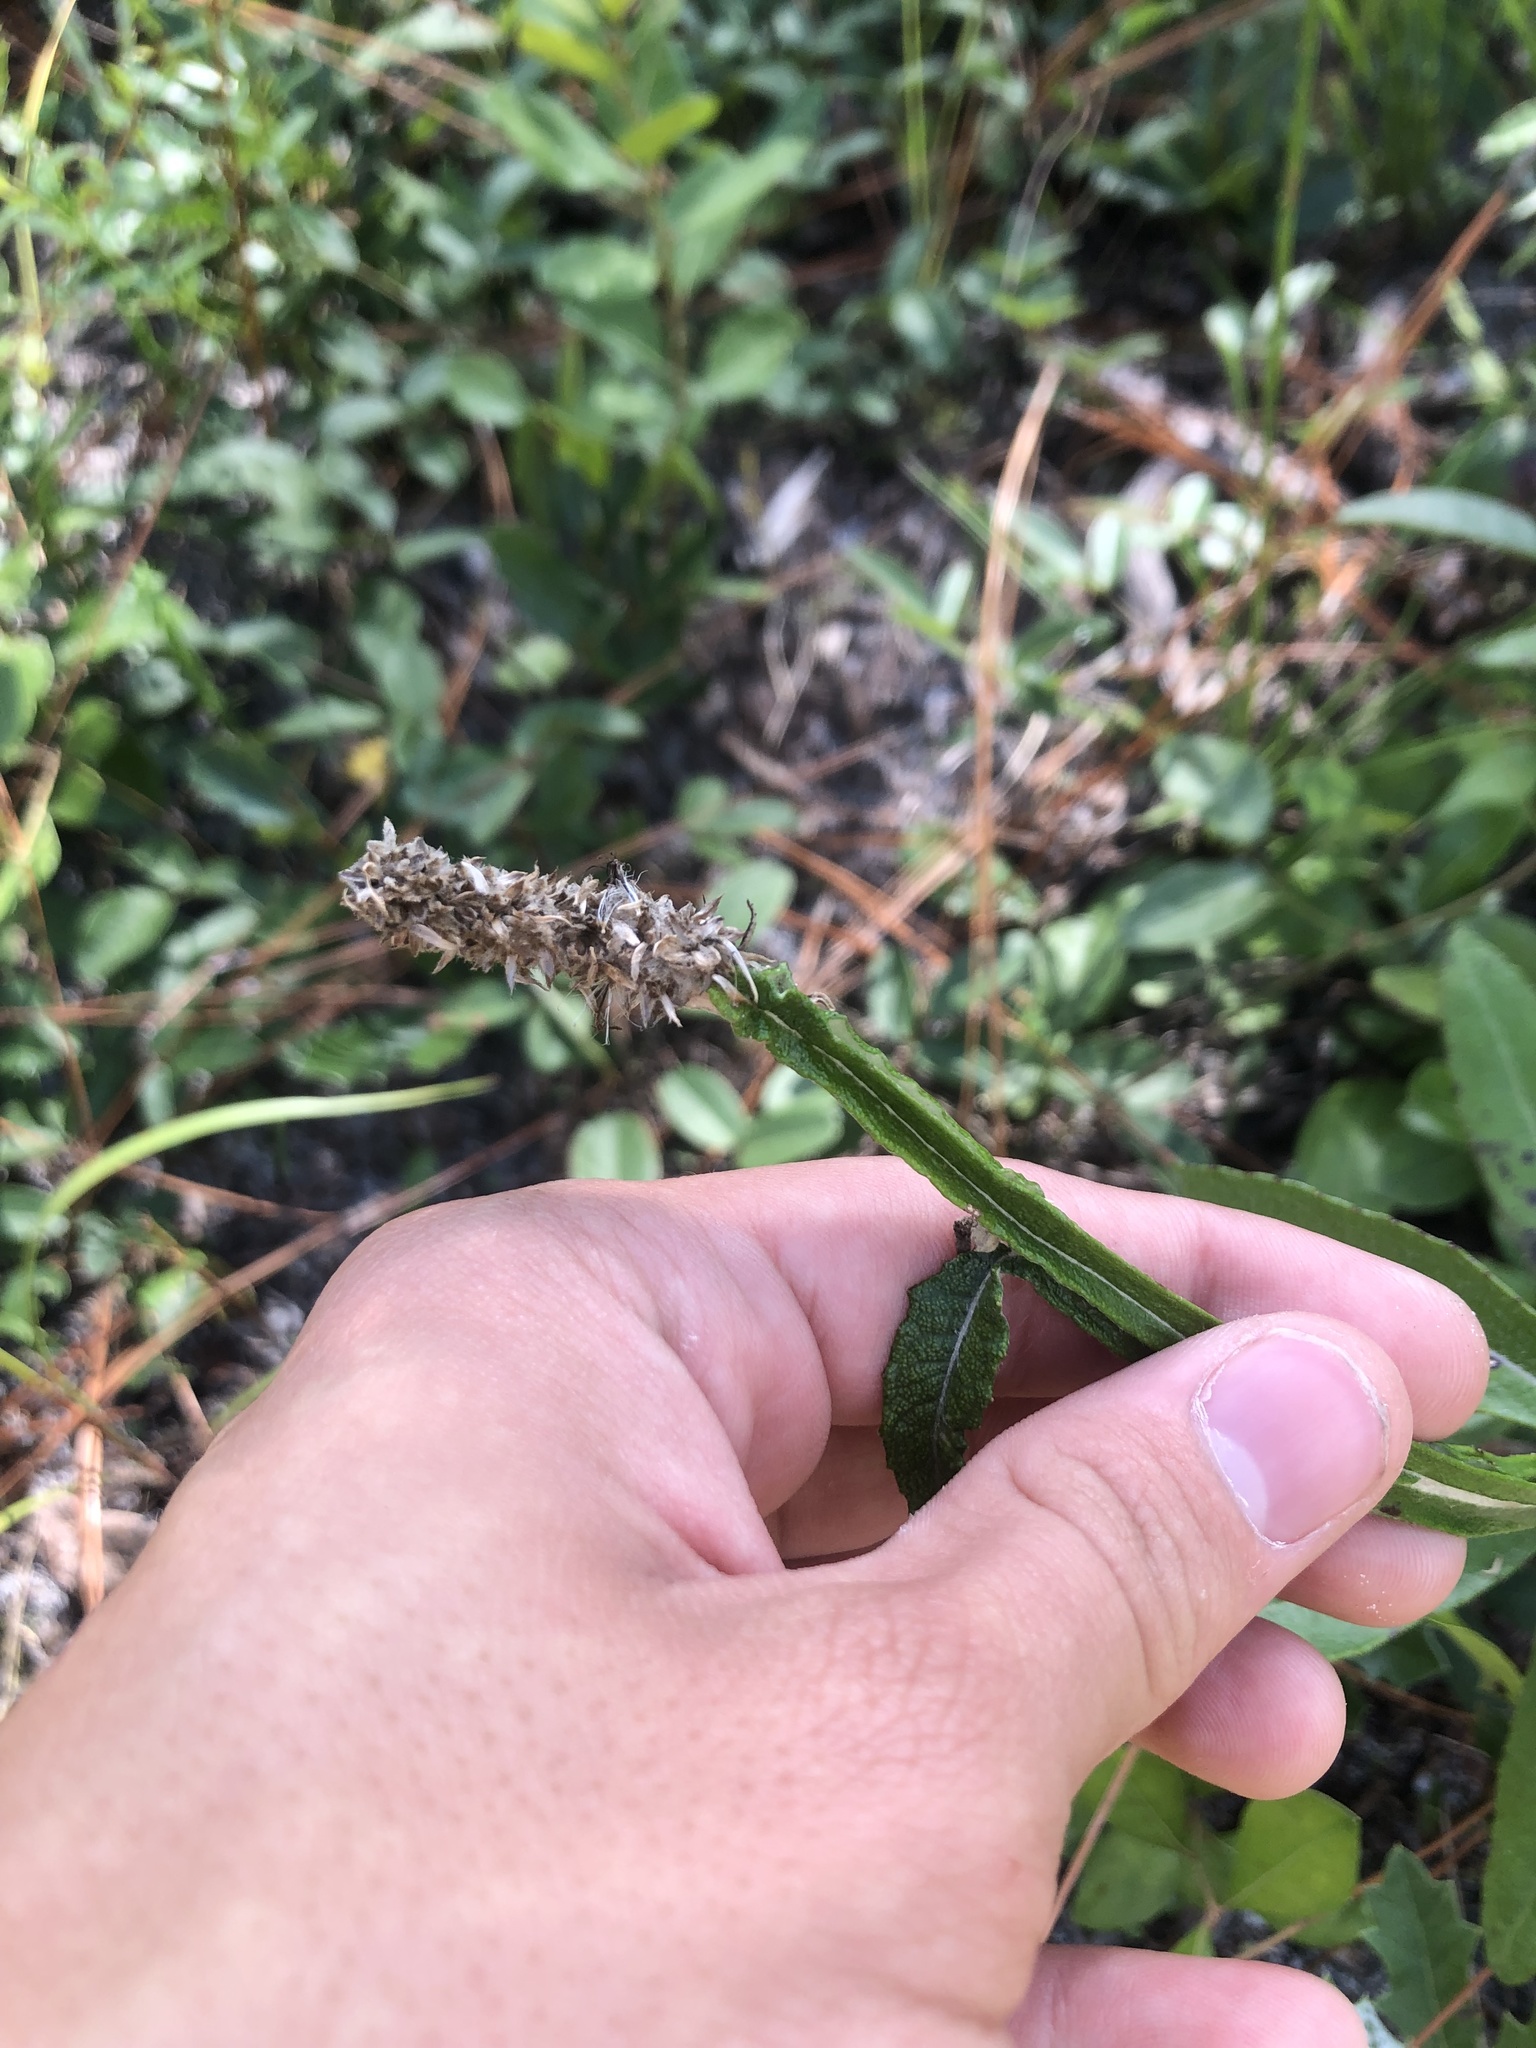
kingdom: Plantae
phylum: Tracheophyta
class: Magnoliopsida
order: Asterales
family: Asteraceae
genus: Pterocaulon
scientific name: Pterocaulon pycnostachyum
